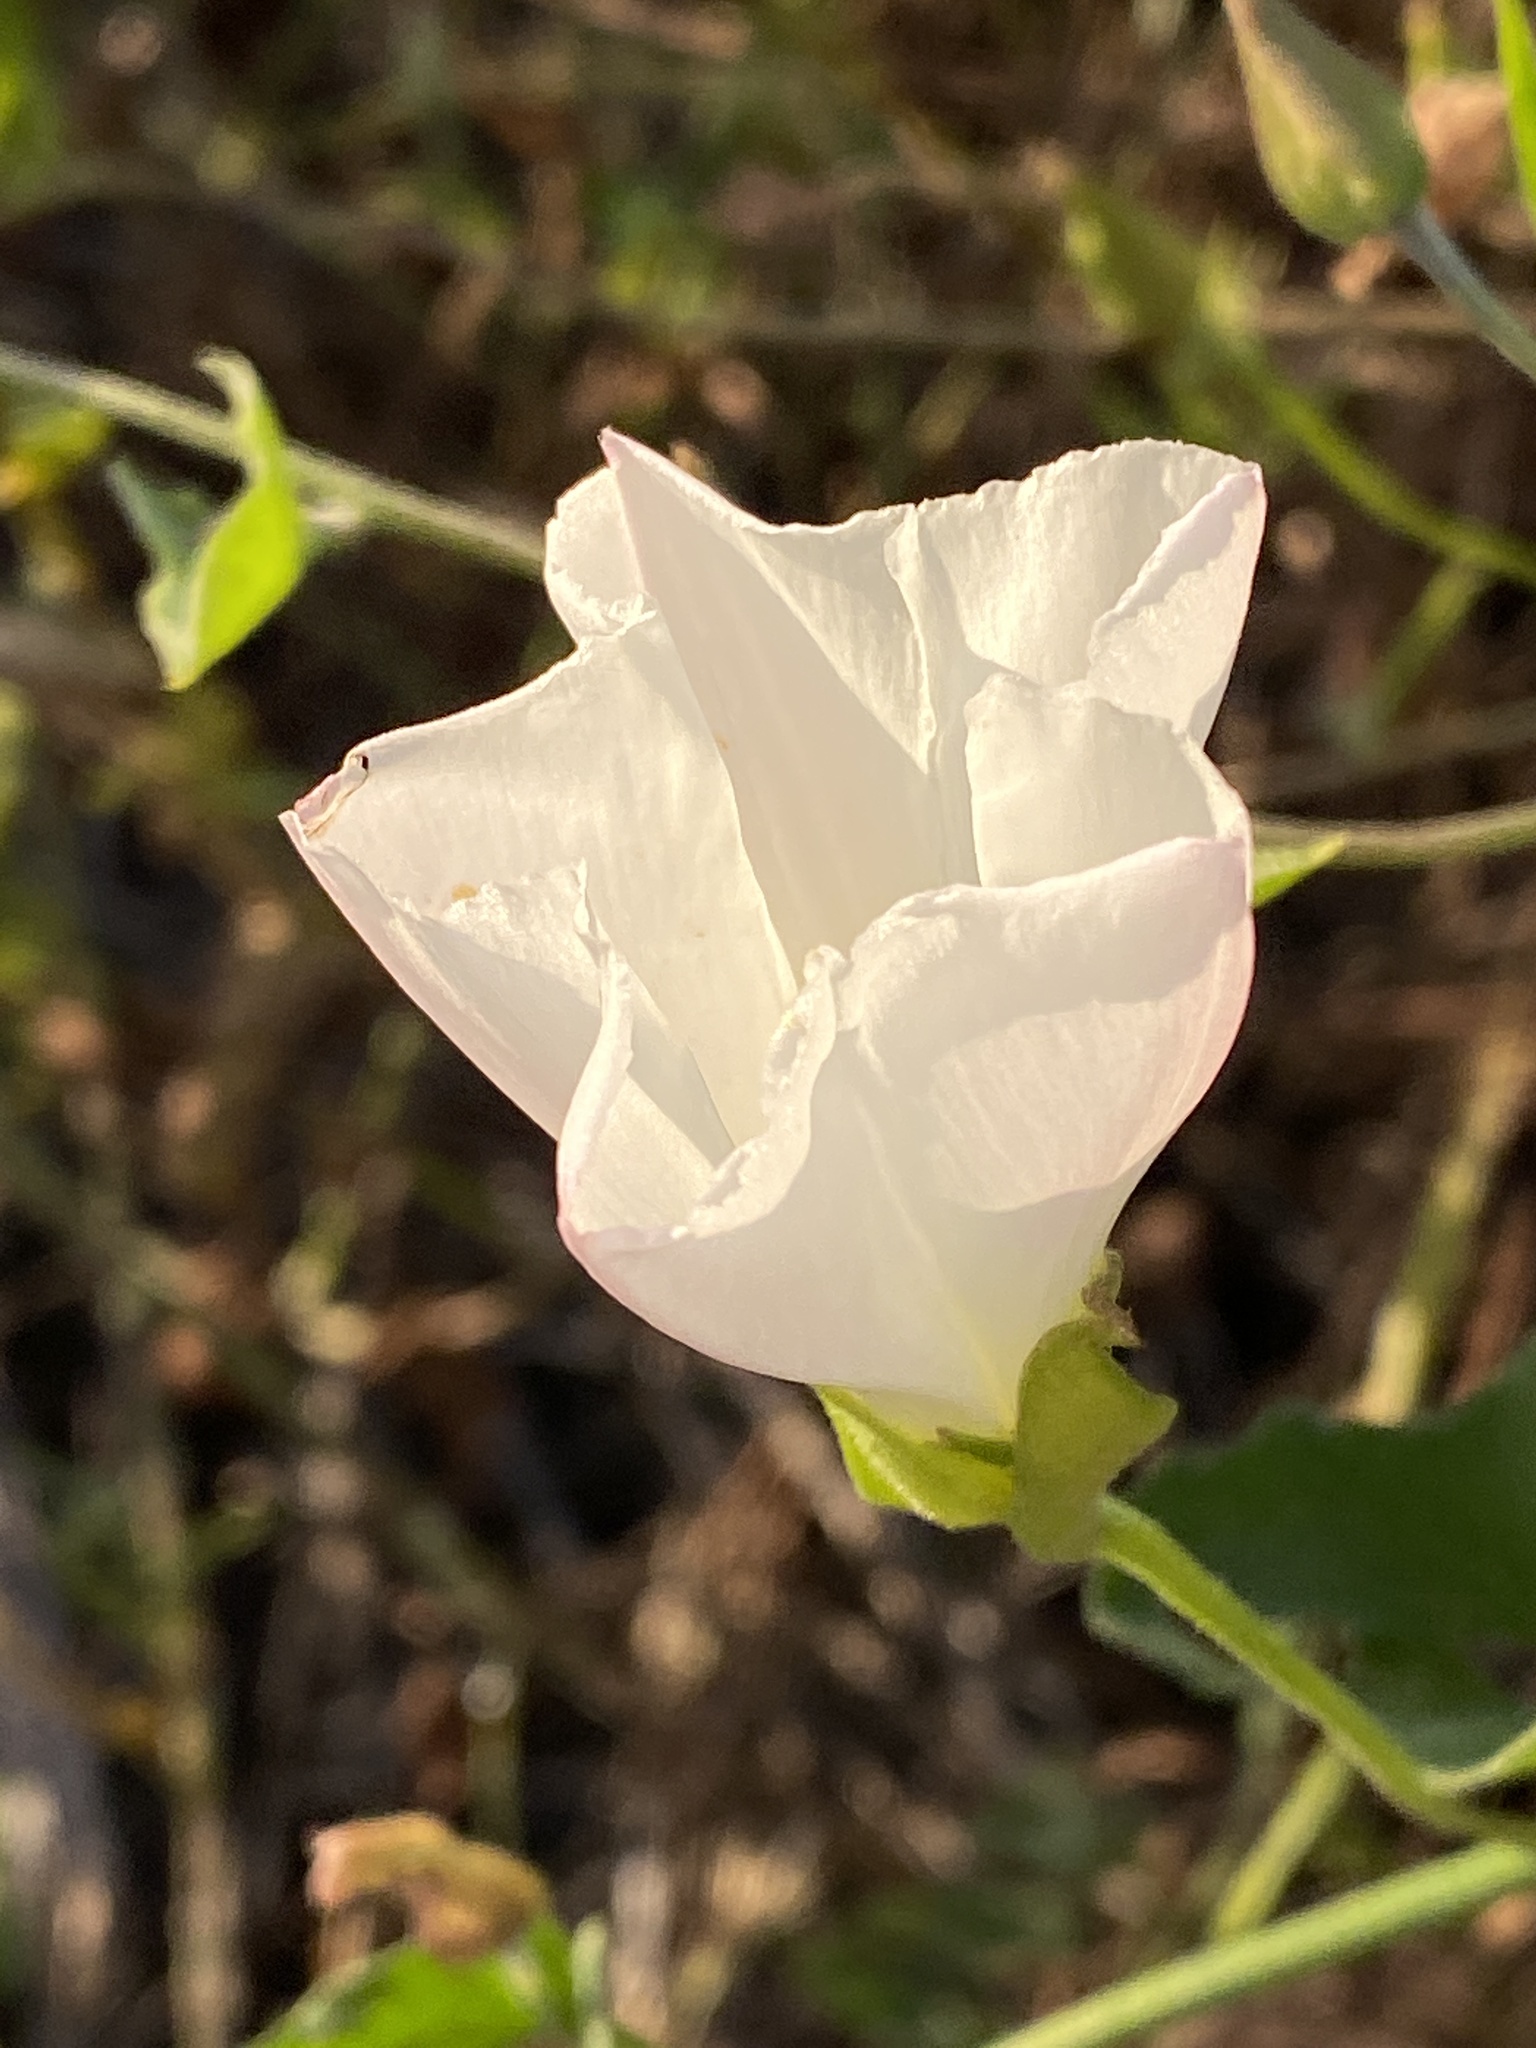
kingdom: Plantae
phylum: Tracheophyta
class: Magnoliopsida
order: Solanales
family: Convolvulaceae
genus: Calystegia
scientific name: Calystegia macrostegia
